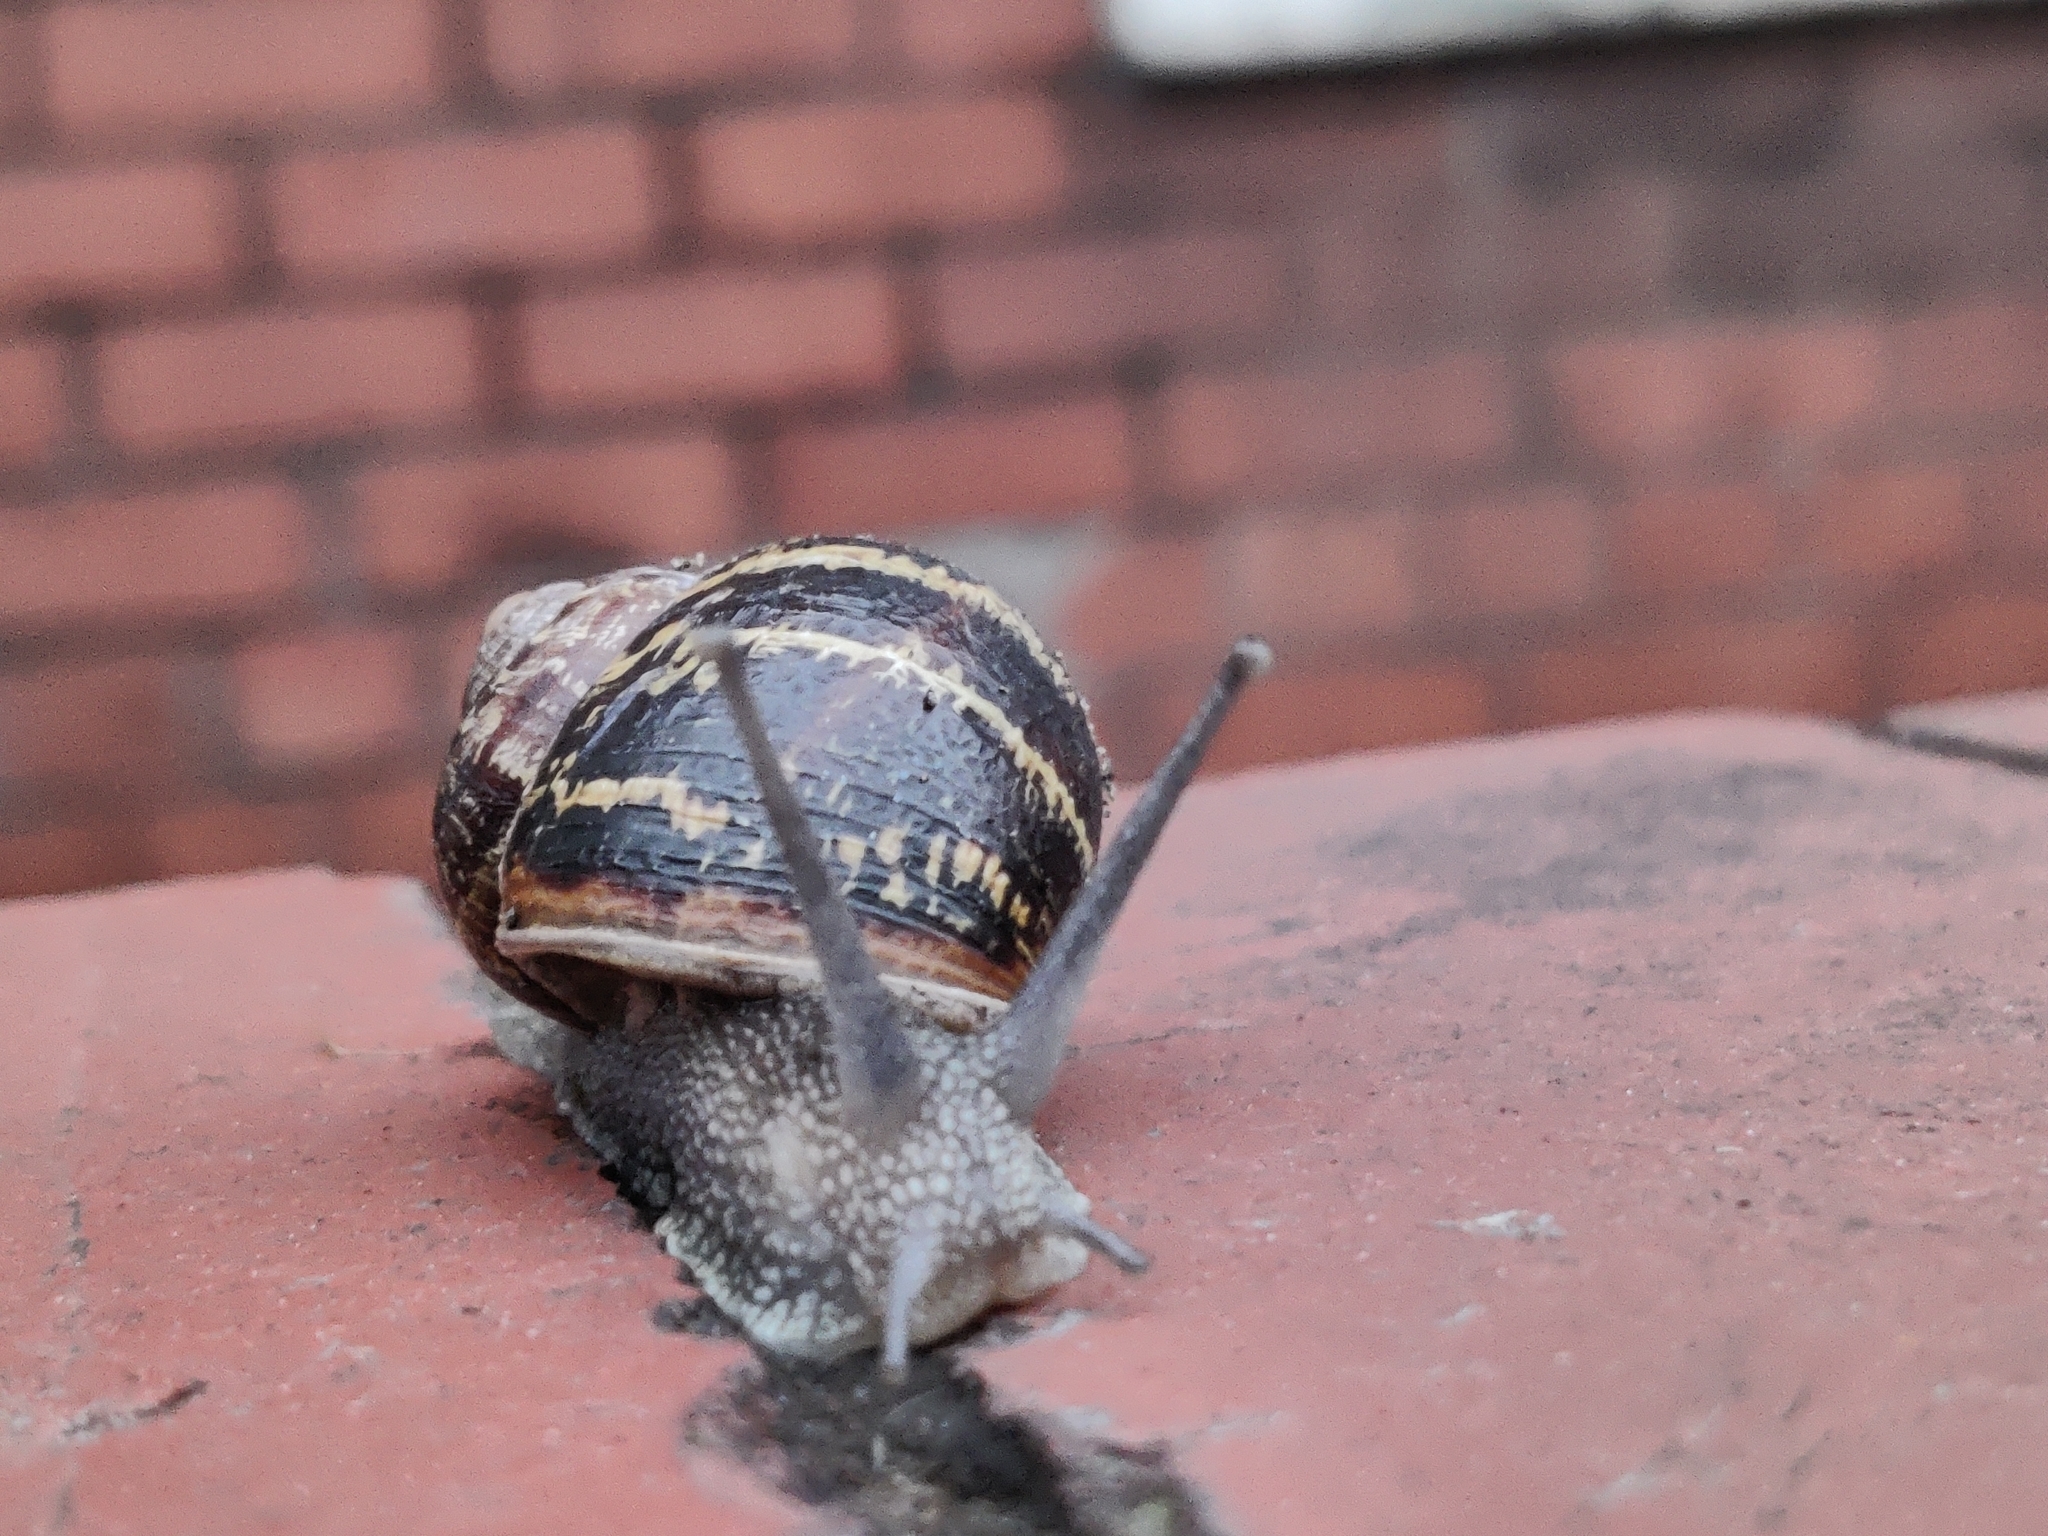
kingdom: Animalia
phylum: Mollusca
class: Gastropoda
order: Stylommatophora
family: Helicidae
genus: Cornu
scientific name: Cornu aspersum
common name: Brown garden snail
